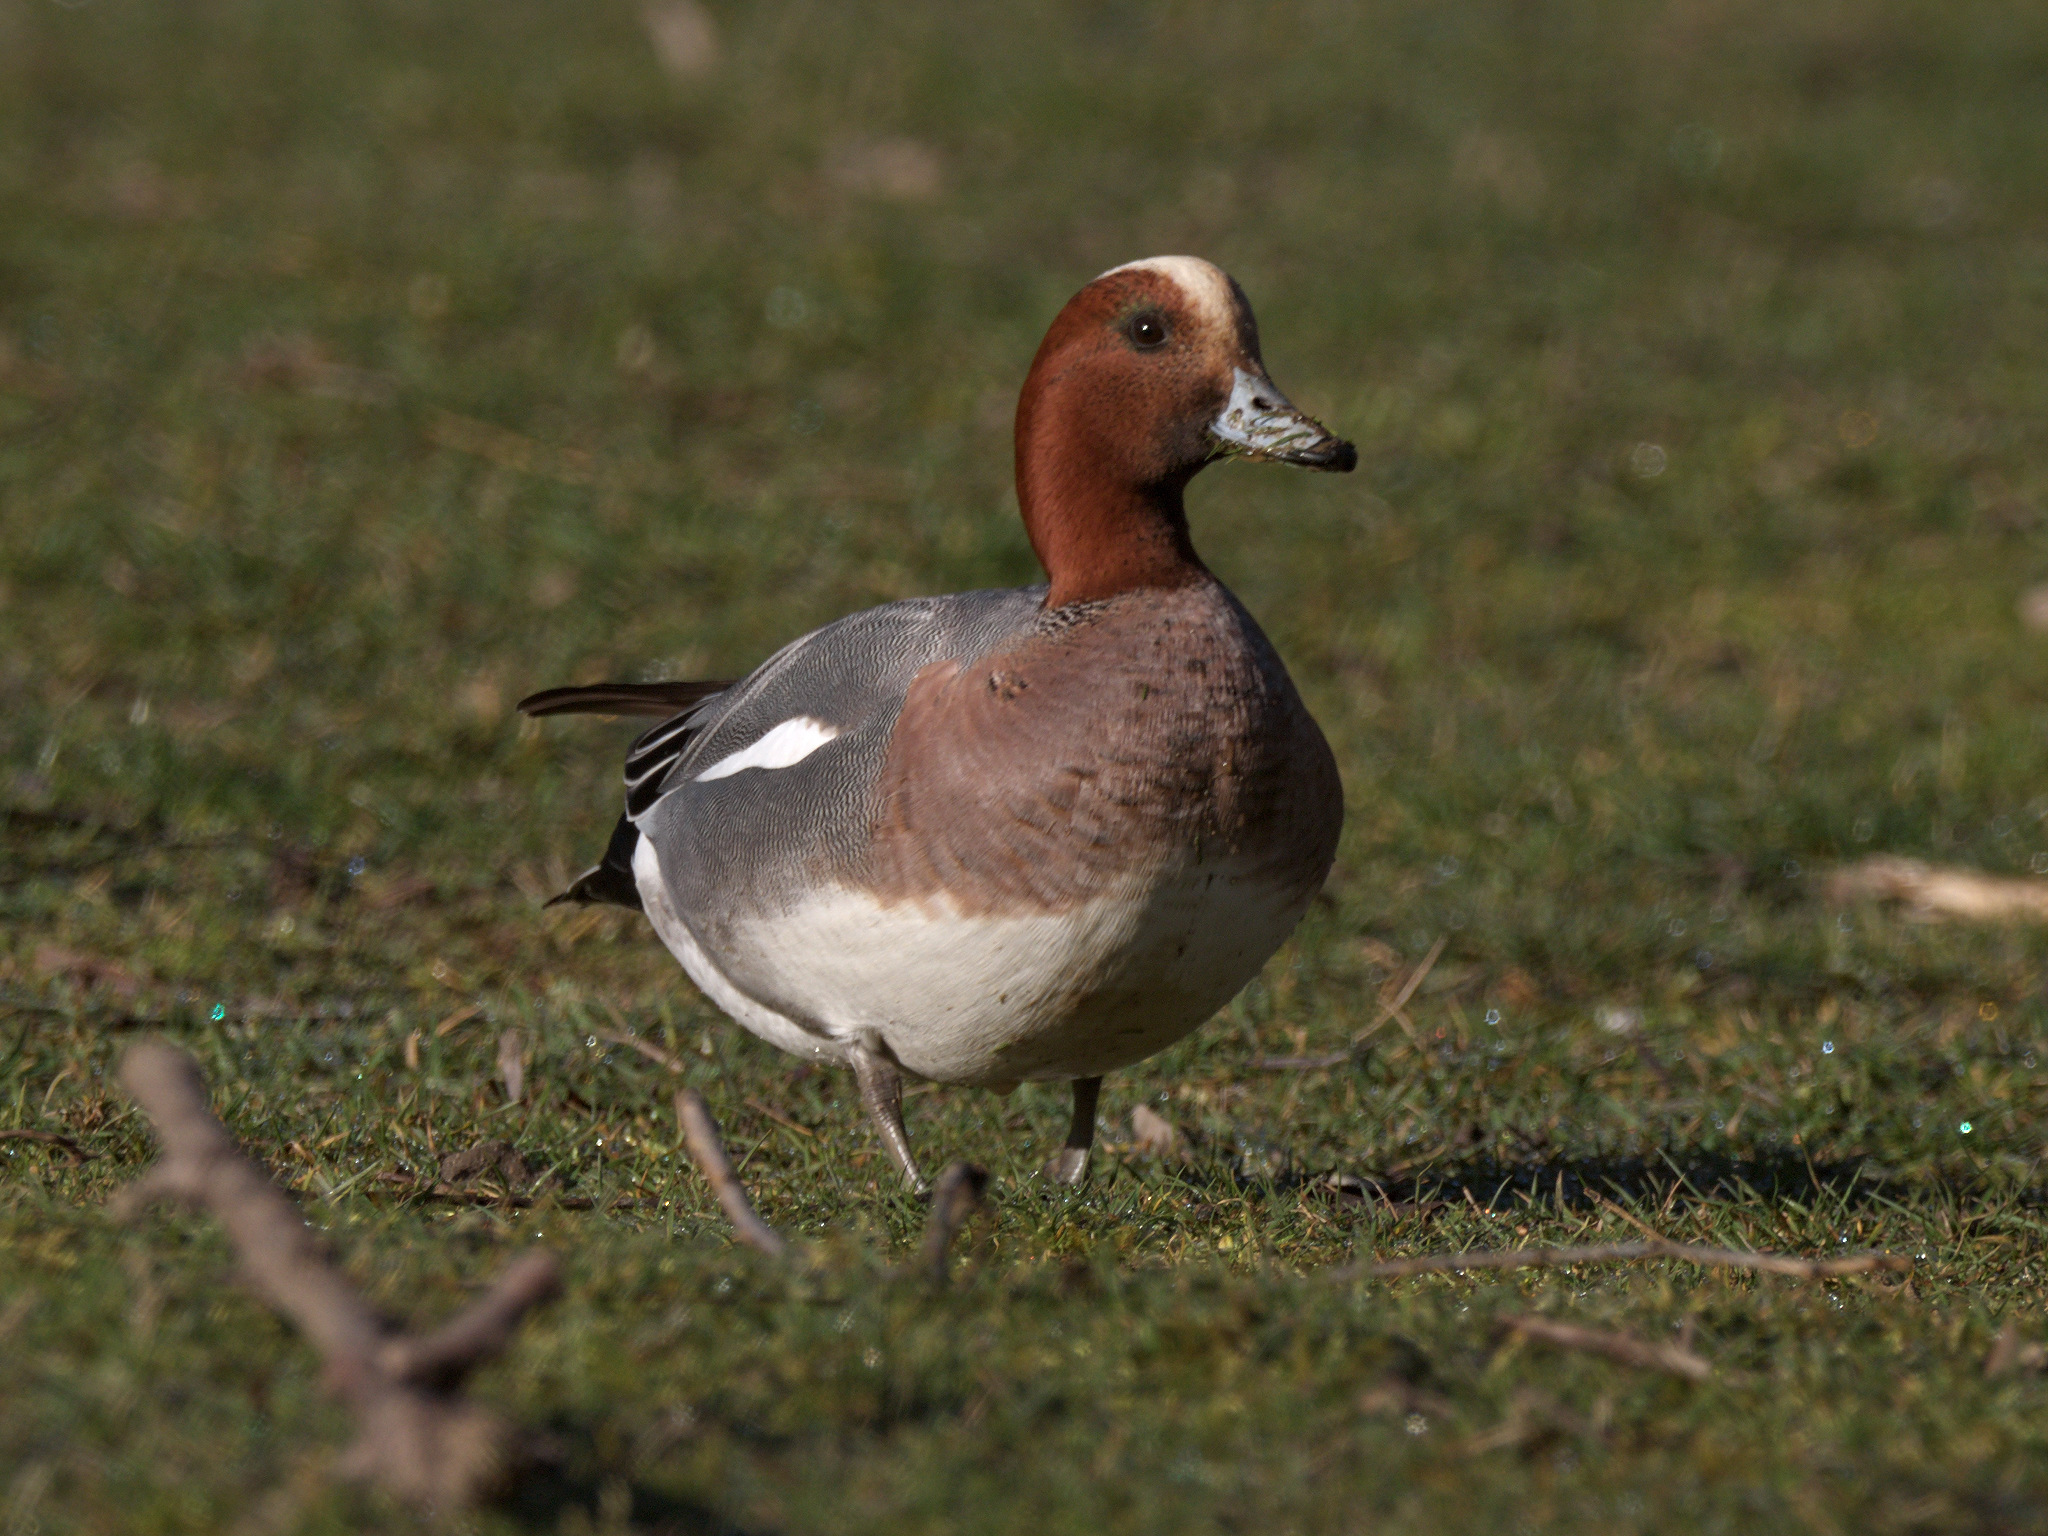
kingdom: Animalia
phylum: Chordata
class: Aves
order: Anseriformes
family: Anatidae
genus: Mareca
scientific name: Mareca penelope
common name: Eurasian wigeon
